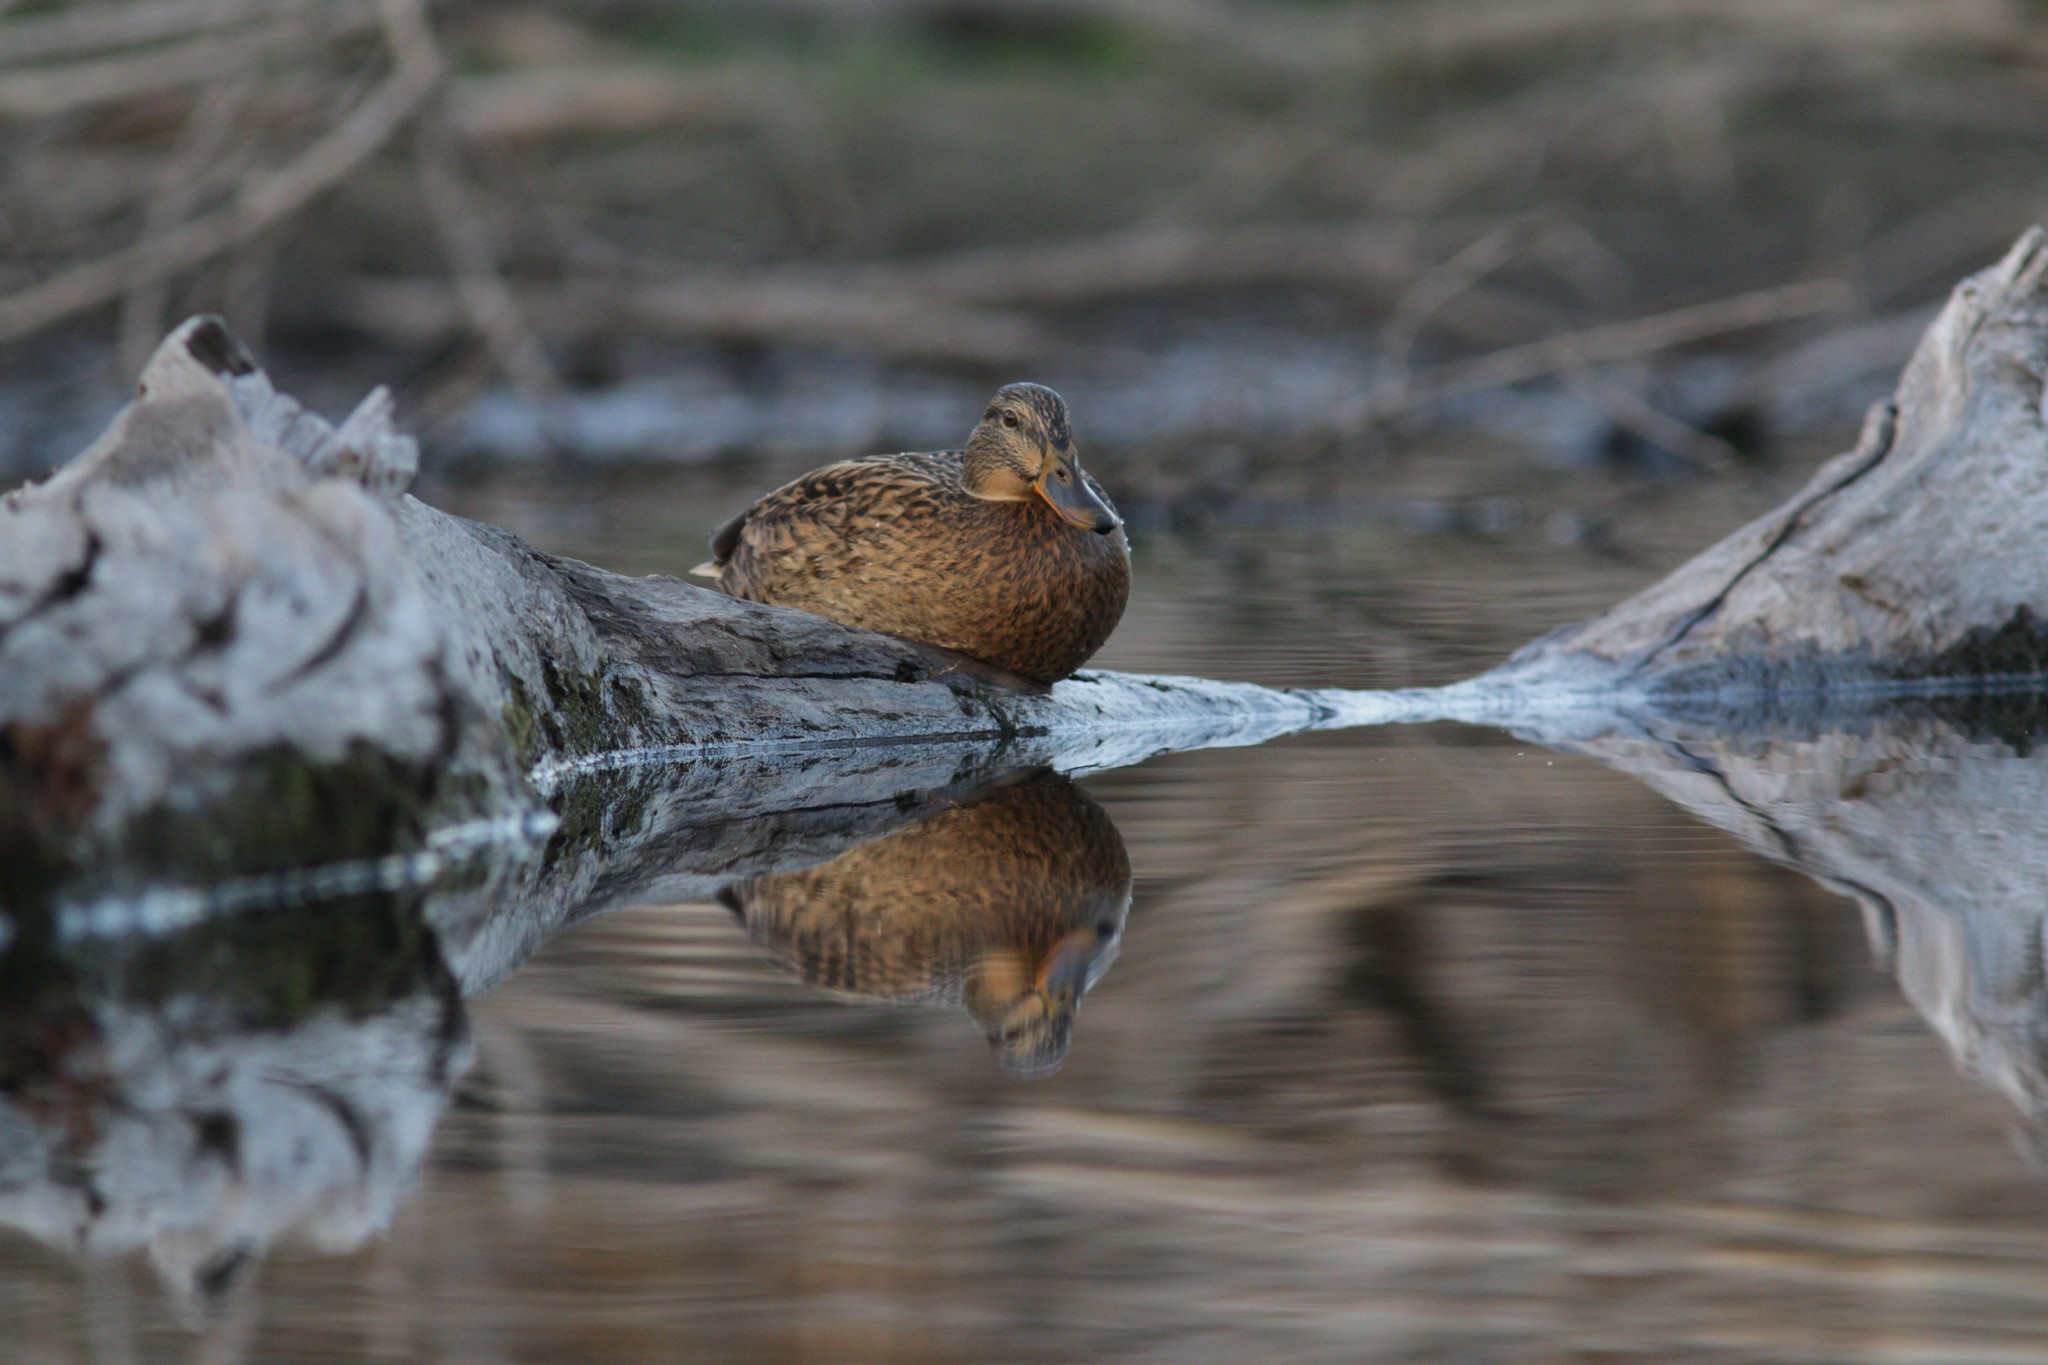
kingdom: Animalia
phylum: Chordata
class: Aves
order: Anseriformes
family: Anatidae
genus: Anas
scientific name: Anas platyrhynchos
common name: Mallard
